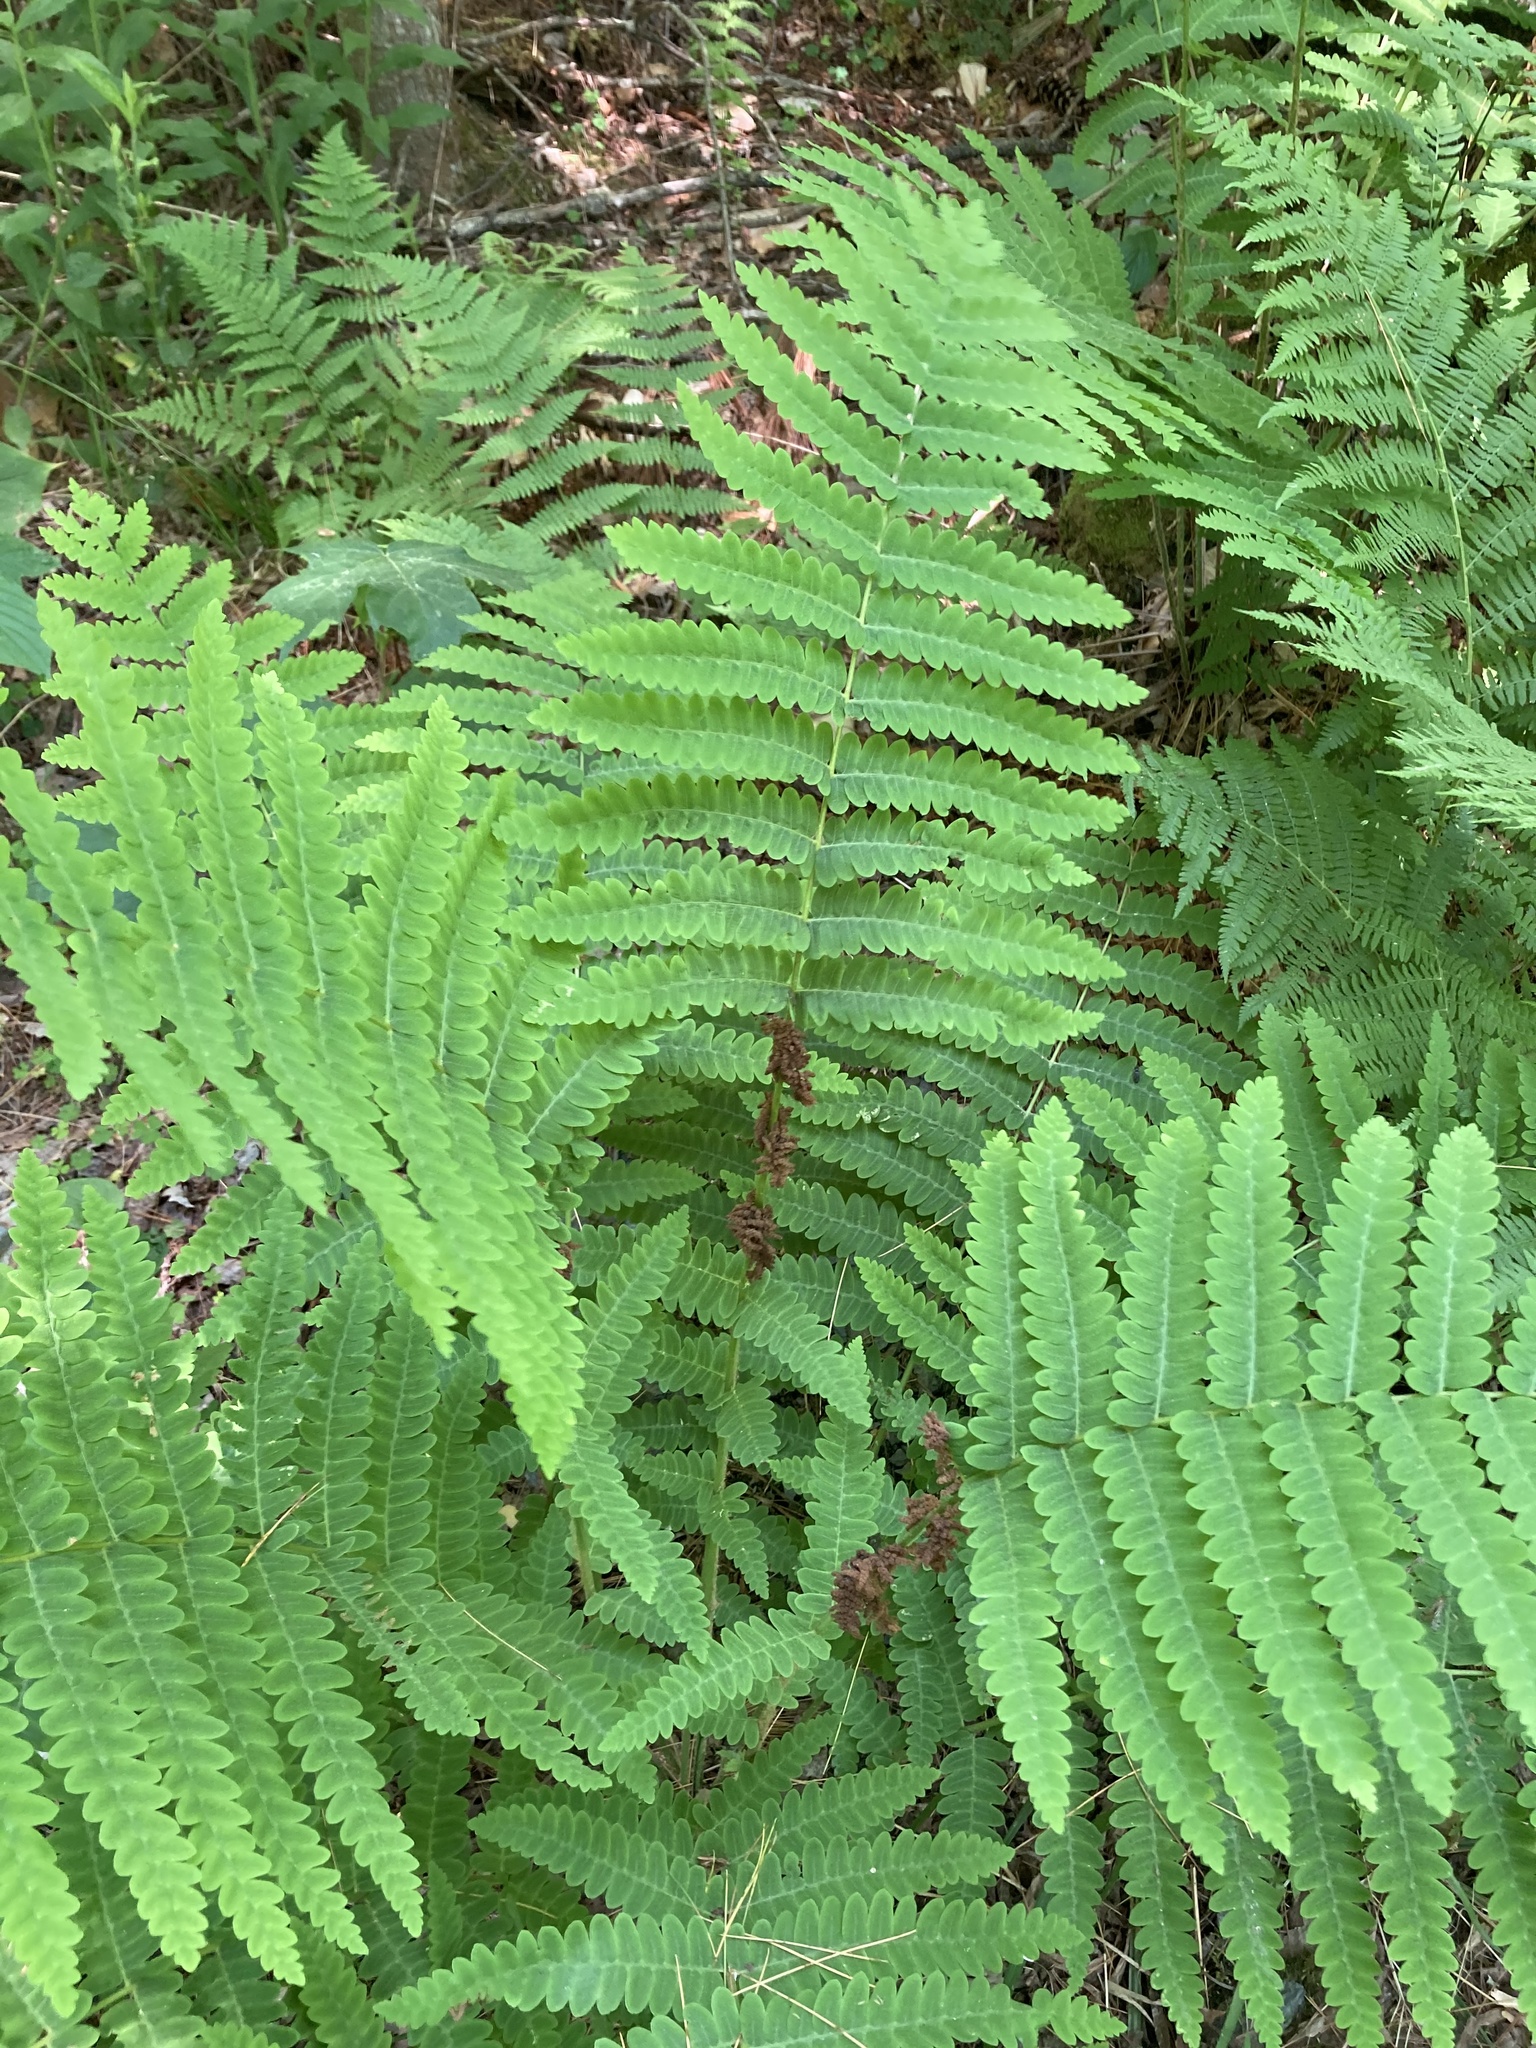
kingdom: Plantae
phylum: Tracheophyta
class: Polypodiopsida
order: Osmundales
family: Osmundaceae
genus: Claytosmunda
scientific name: Claytosmunda claytoniana
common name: Clayton's fern
